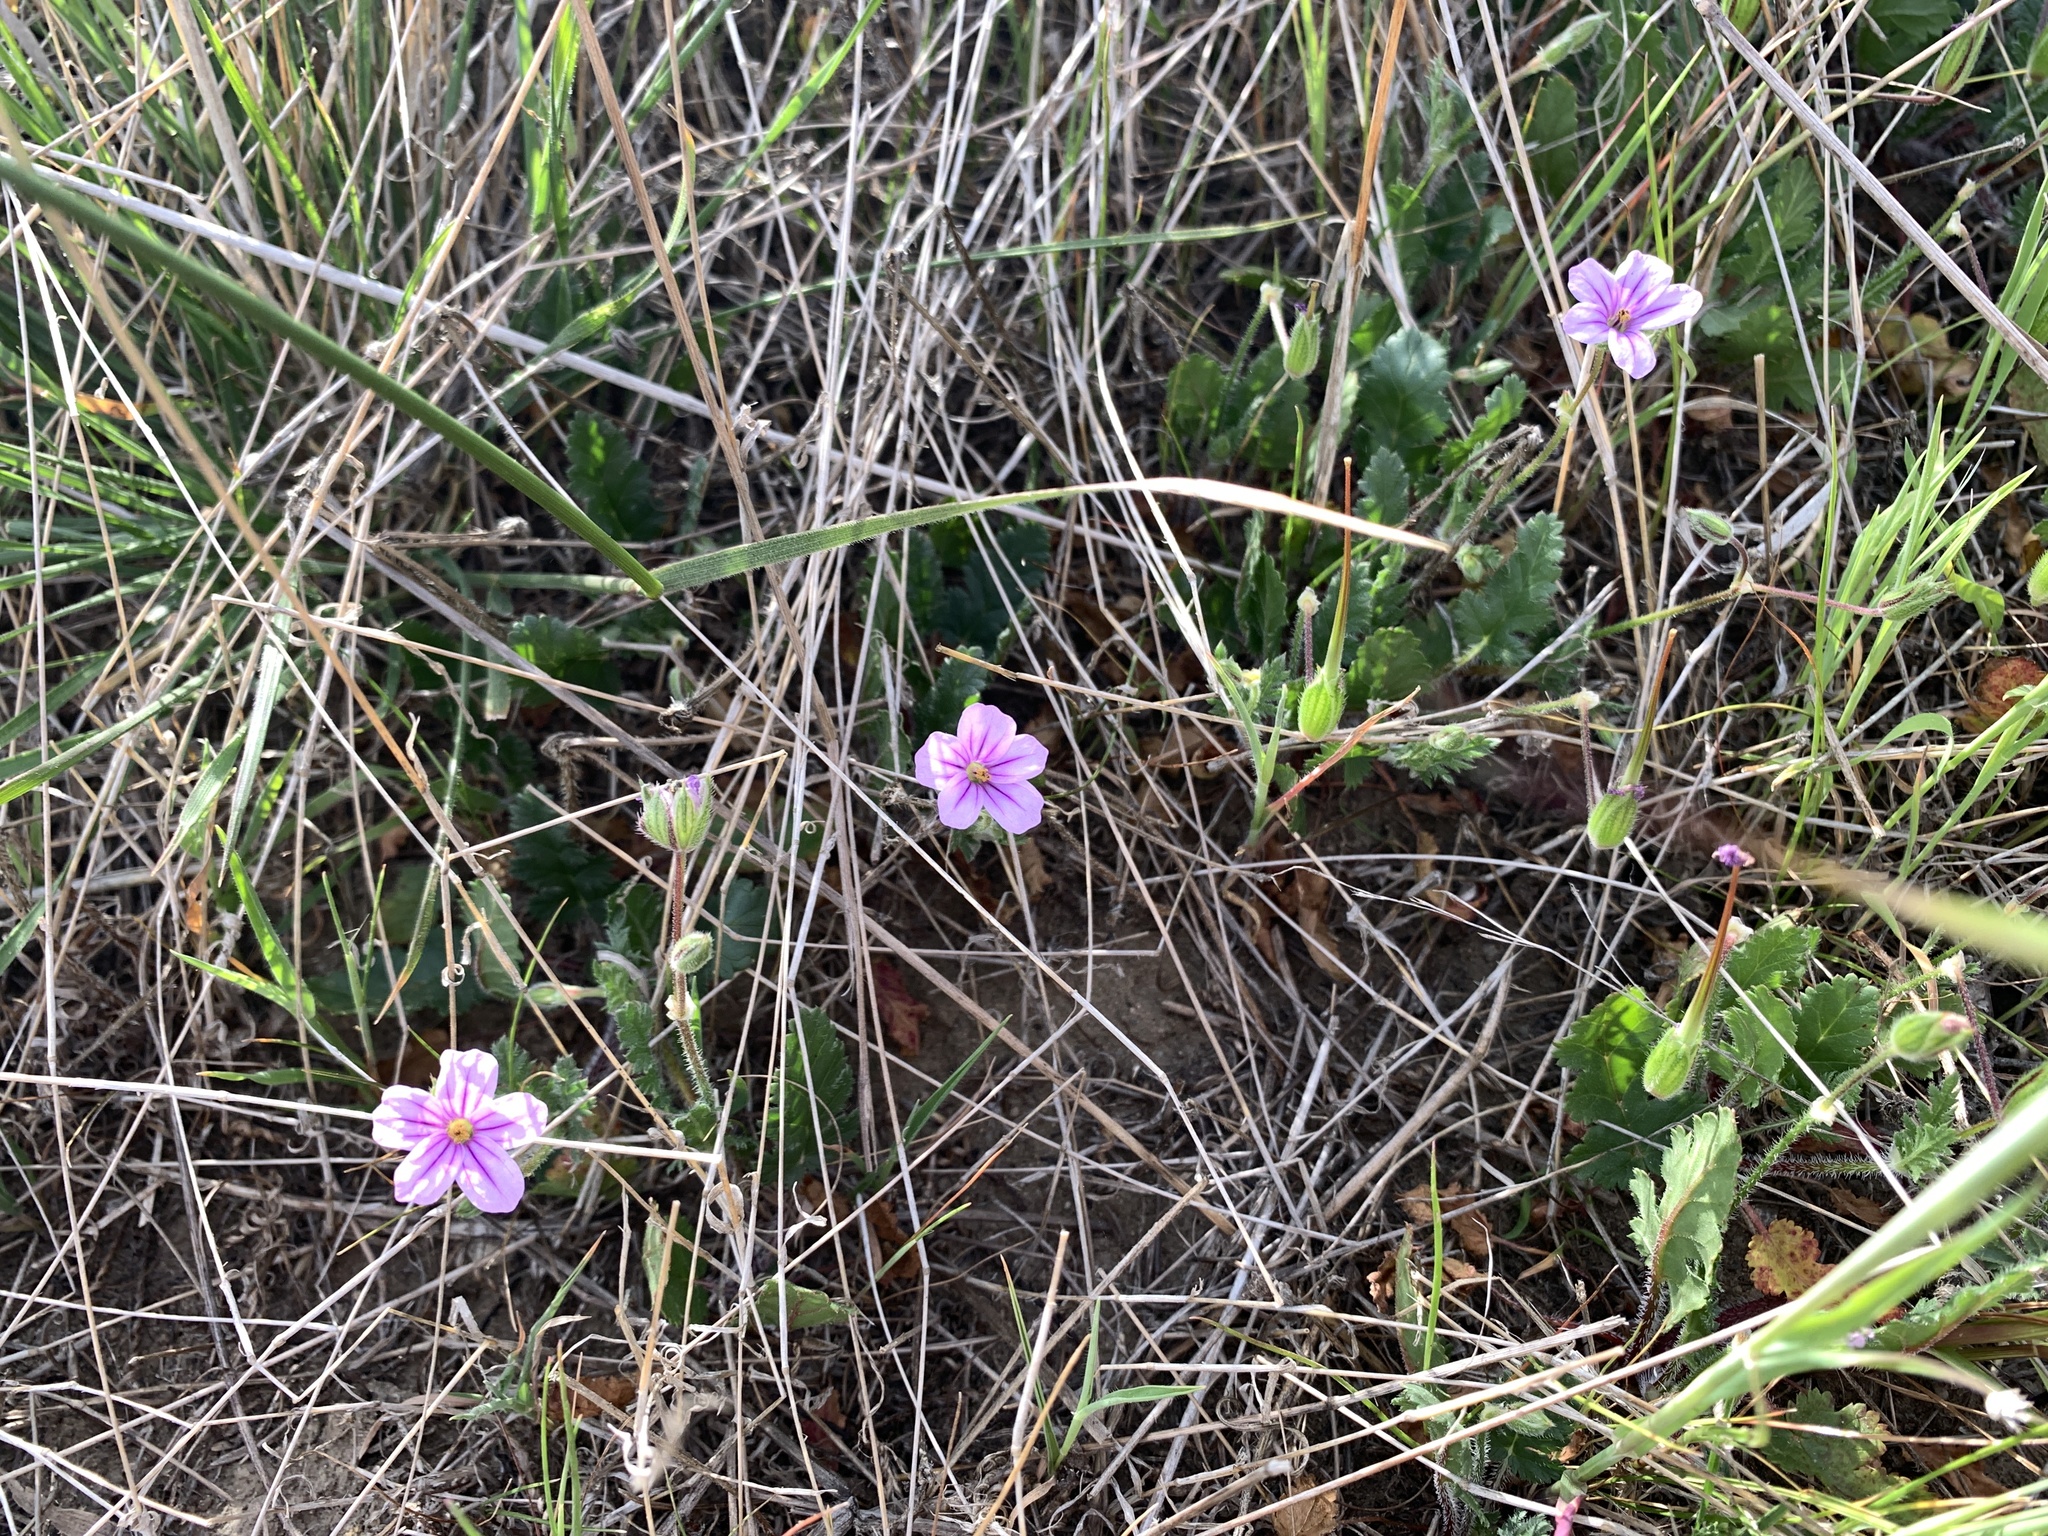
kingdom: Plantae
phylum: Tracheophyta
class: Magnoliopsida
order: Geraniales
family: Geraniaceae
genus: Erodium
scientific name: Erodium botrys
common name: Mediterranean stork's-bill
